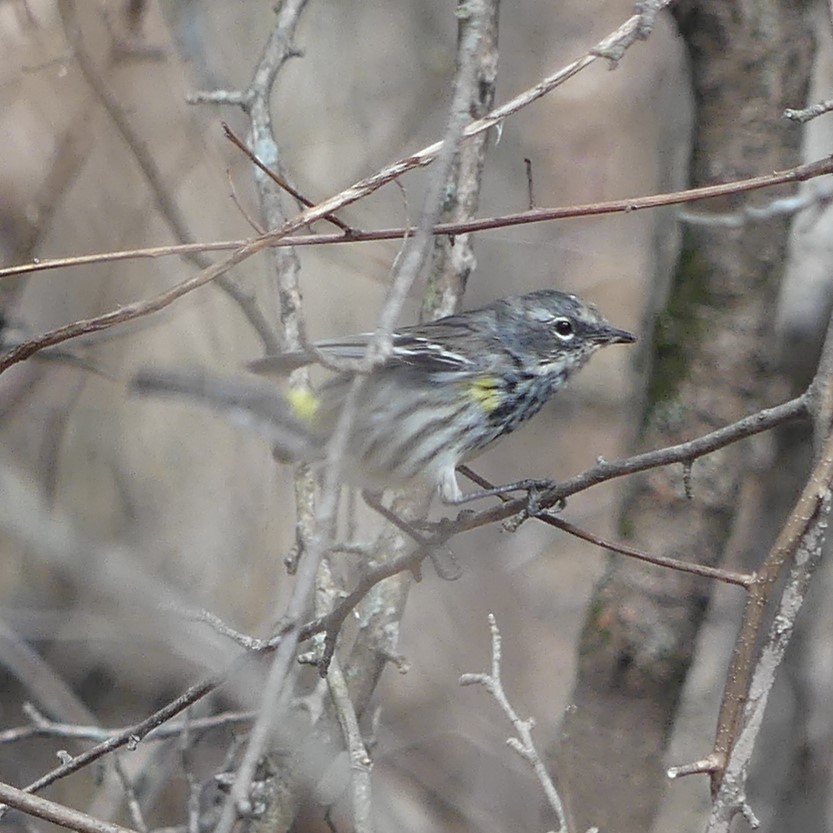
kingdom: Animalia
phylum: Chordata
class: Aves
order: Passeriformes
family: Parulidae
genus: Setophaga
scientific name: Setophaga coronata
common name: Myrtle warbler
